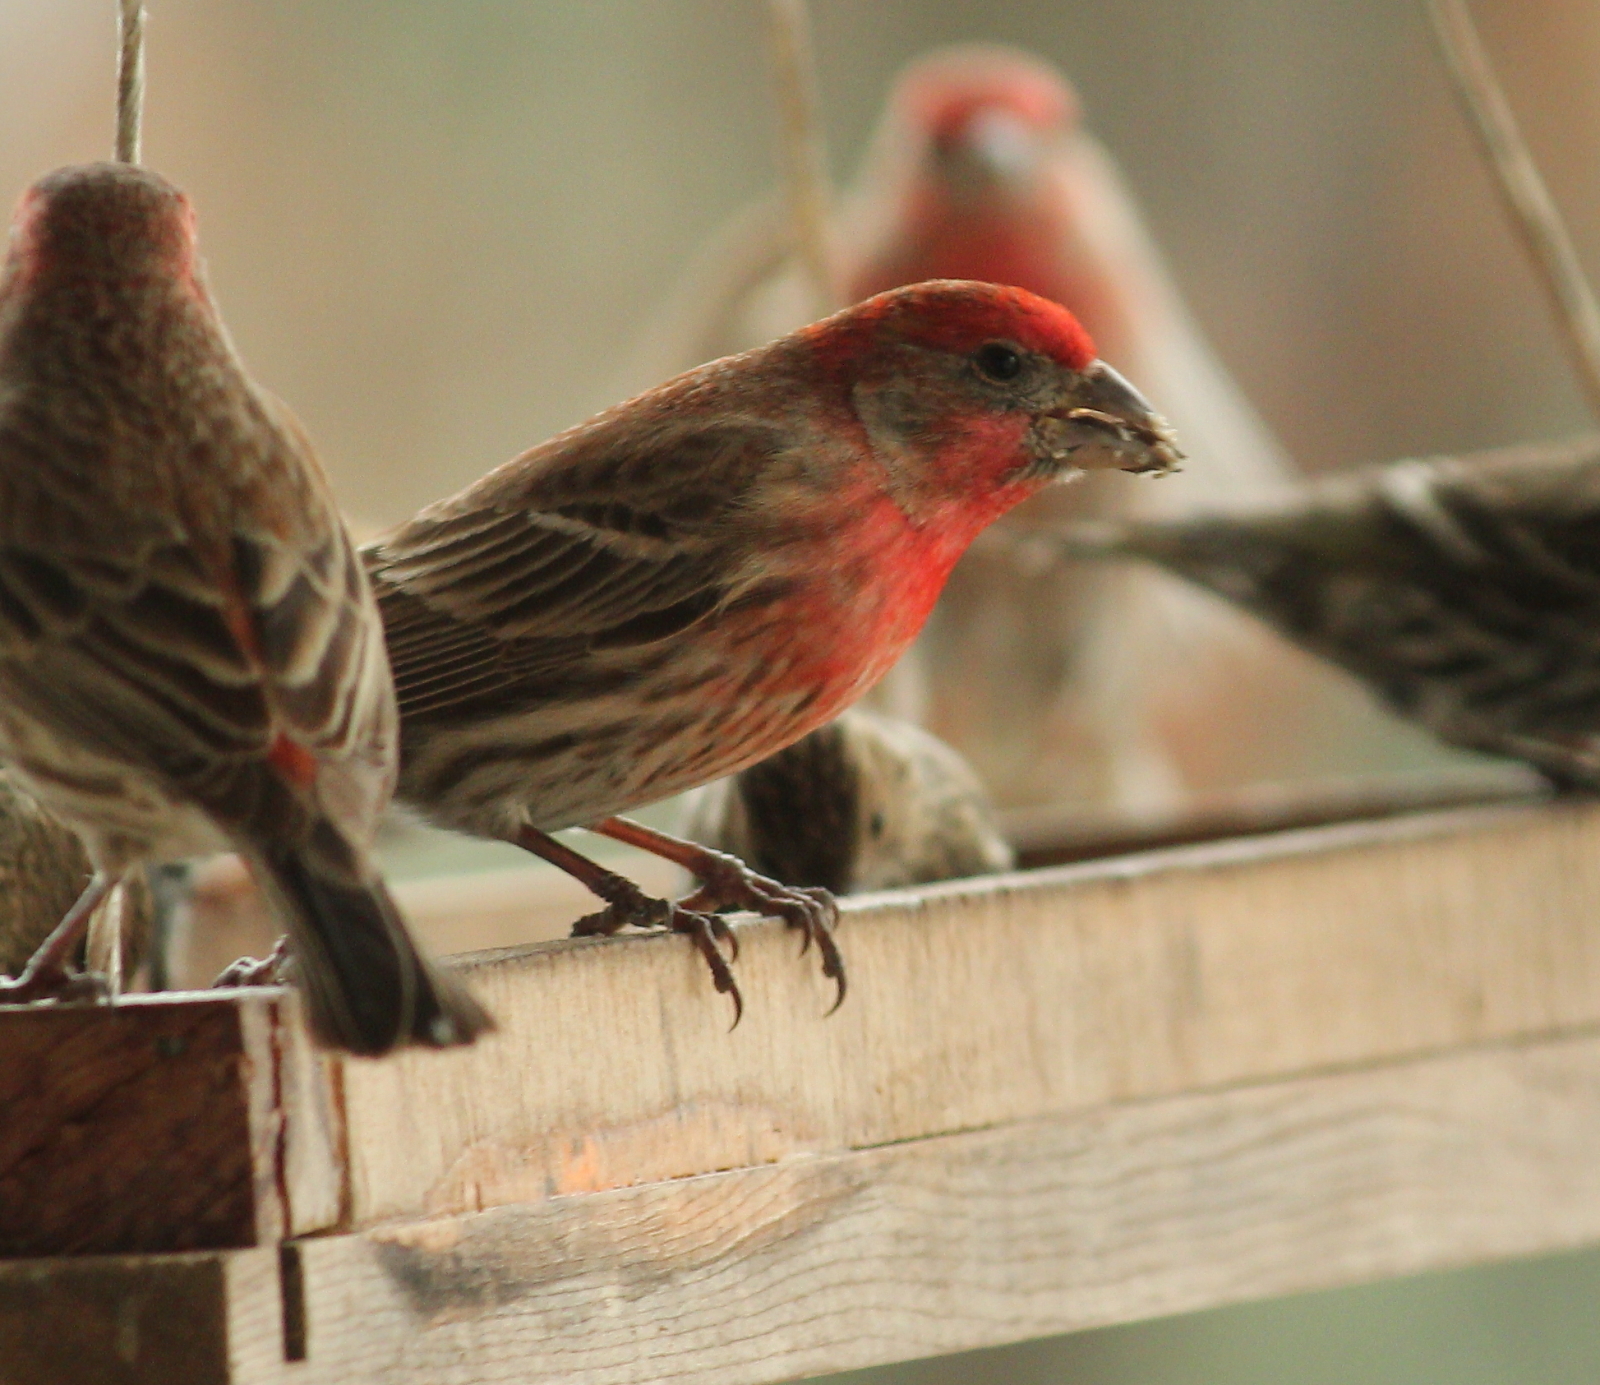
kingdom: Animalia
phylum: Chordata
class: Aves
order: Passeriformes
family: Fringillidae
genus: Haemorhous
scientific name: Haemorhous mexicanus
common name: House finch
